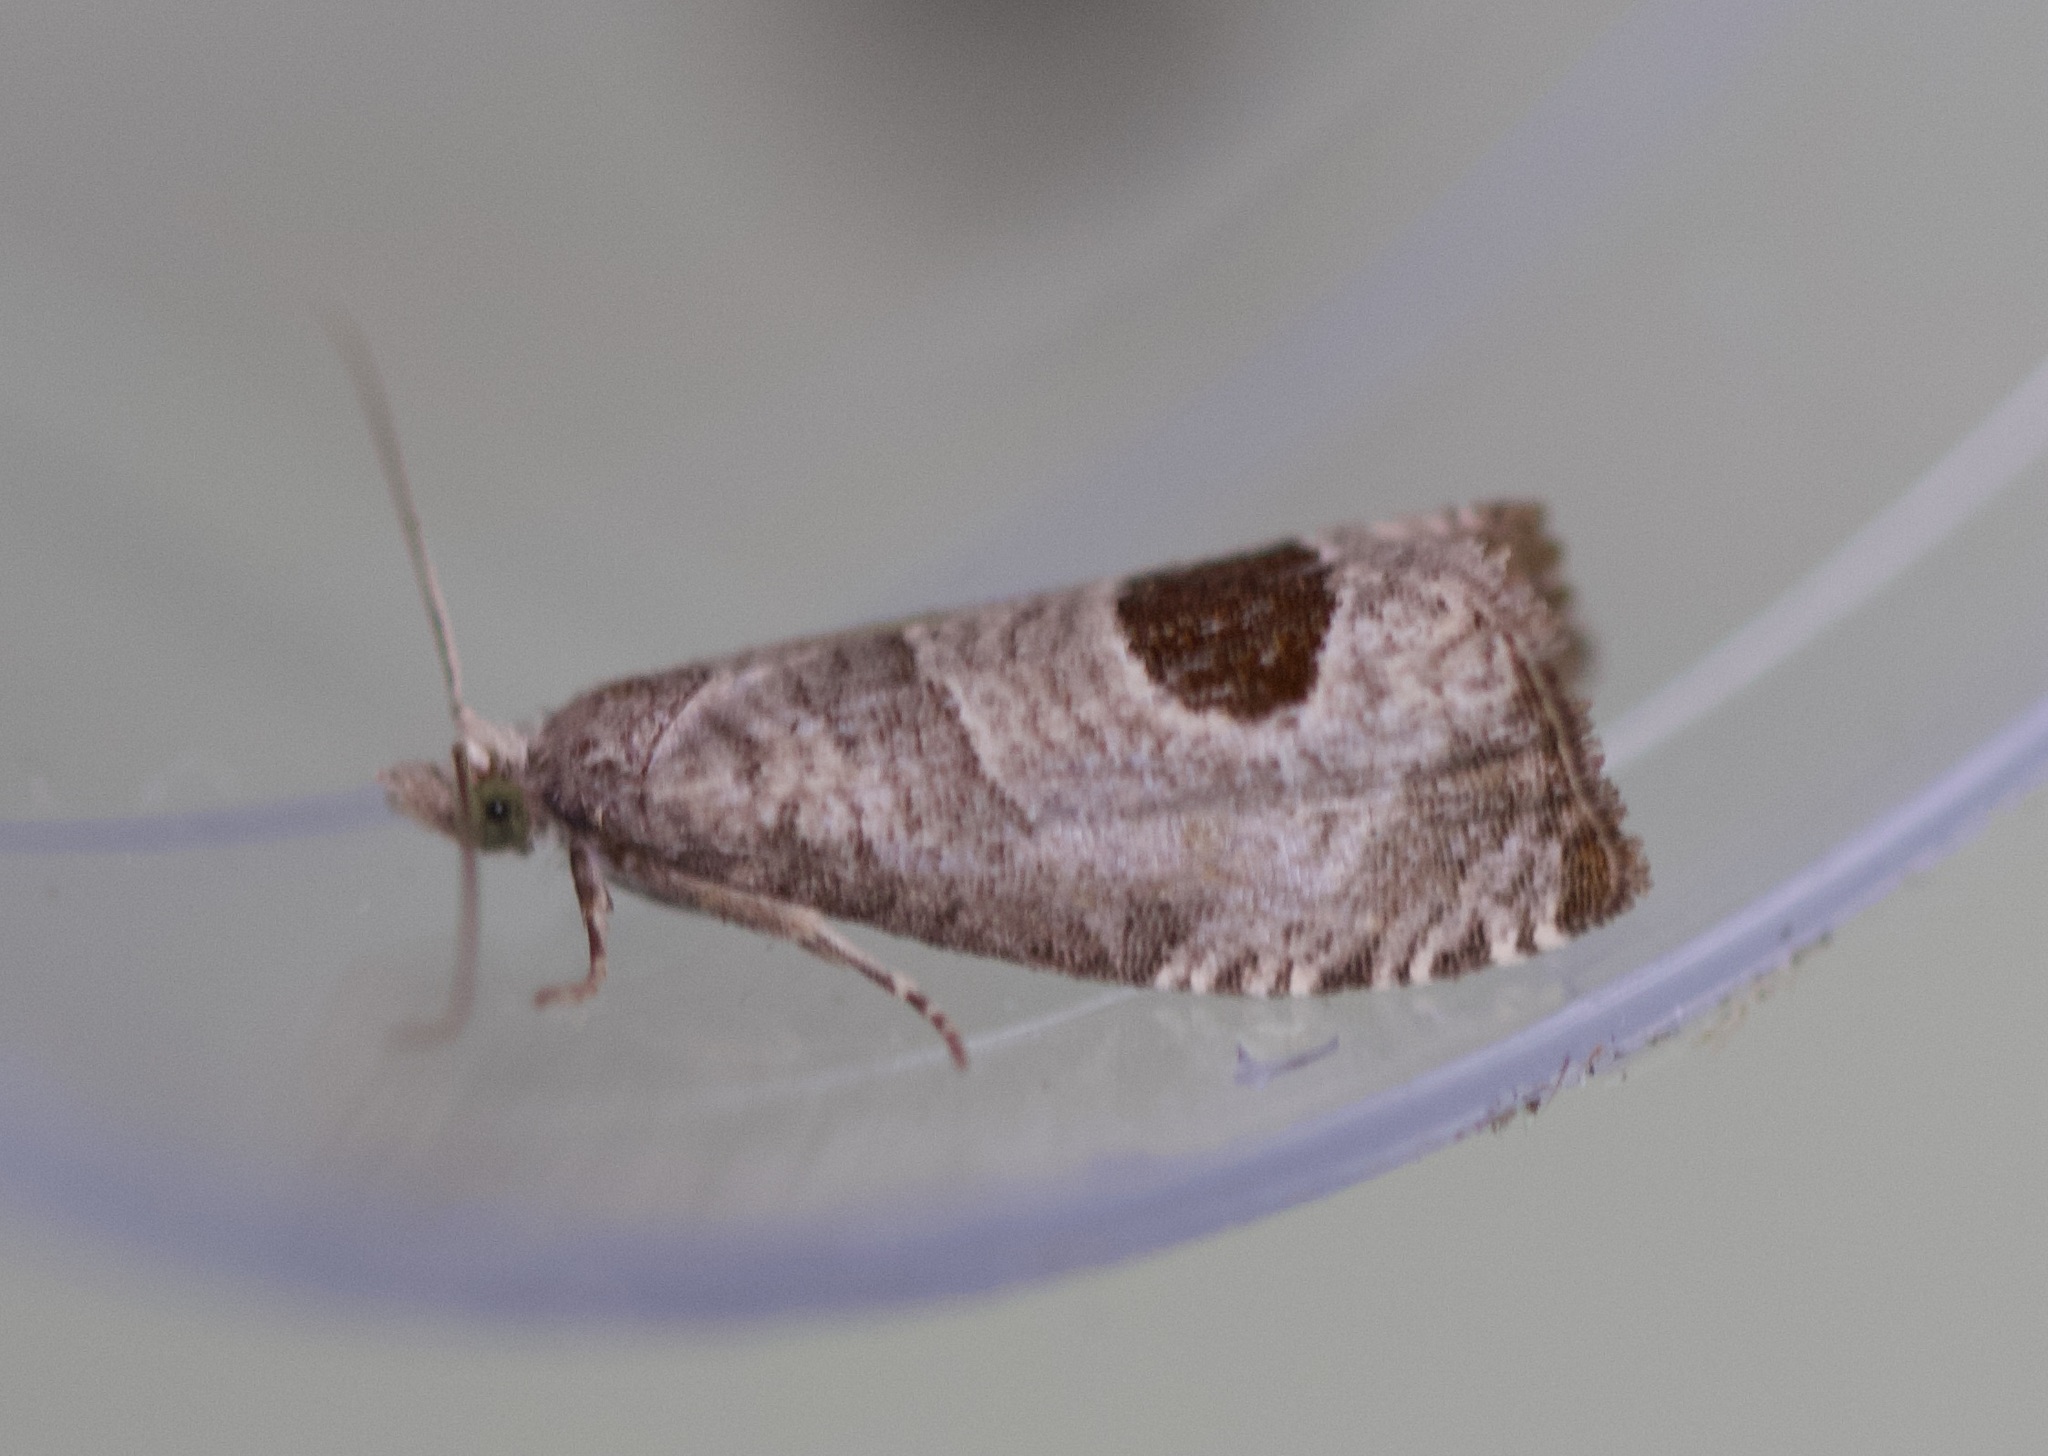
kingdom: Animalia
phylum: Arthropoda
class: Insecta
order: Lepidoptera
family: Tortricidae
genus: Notocelia
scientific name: Notocelia uddmanniana
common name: Bramble shoot moth
